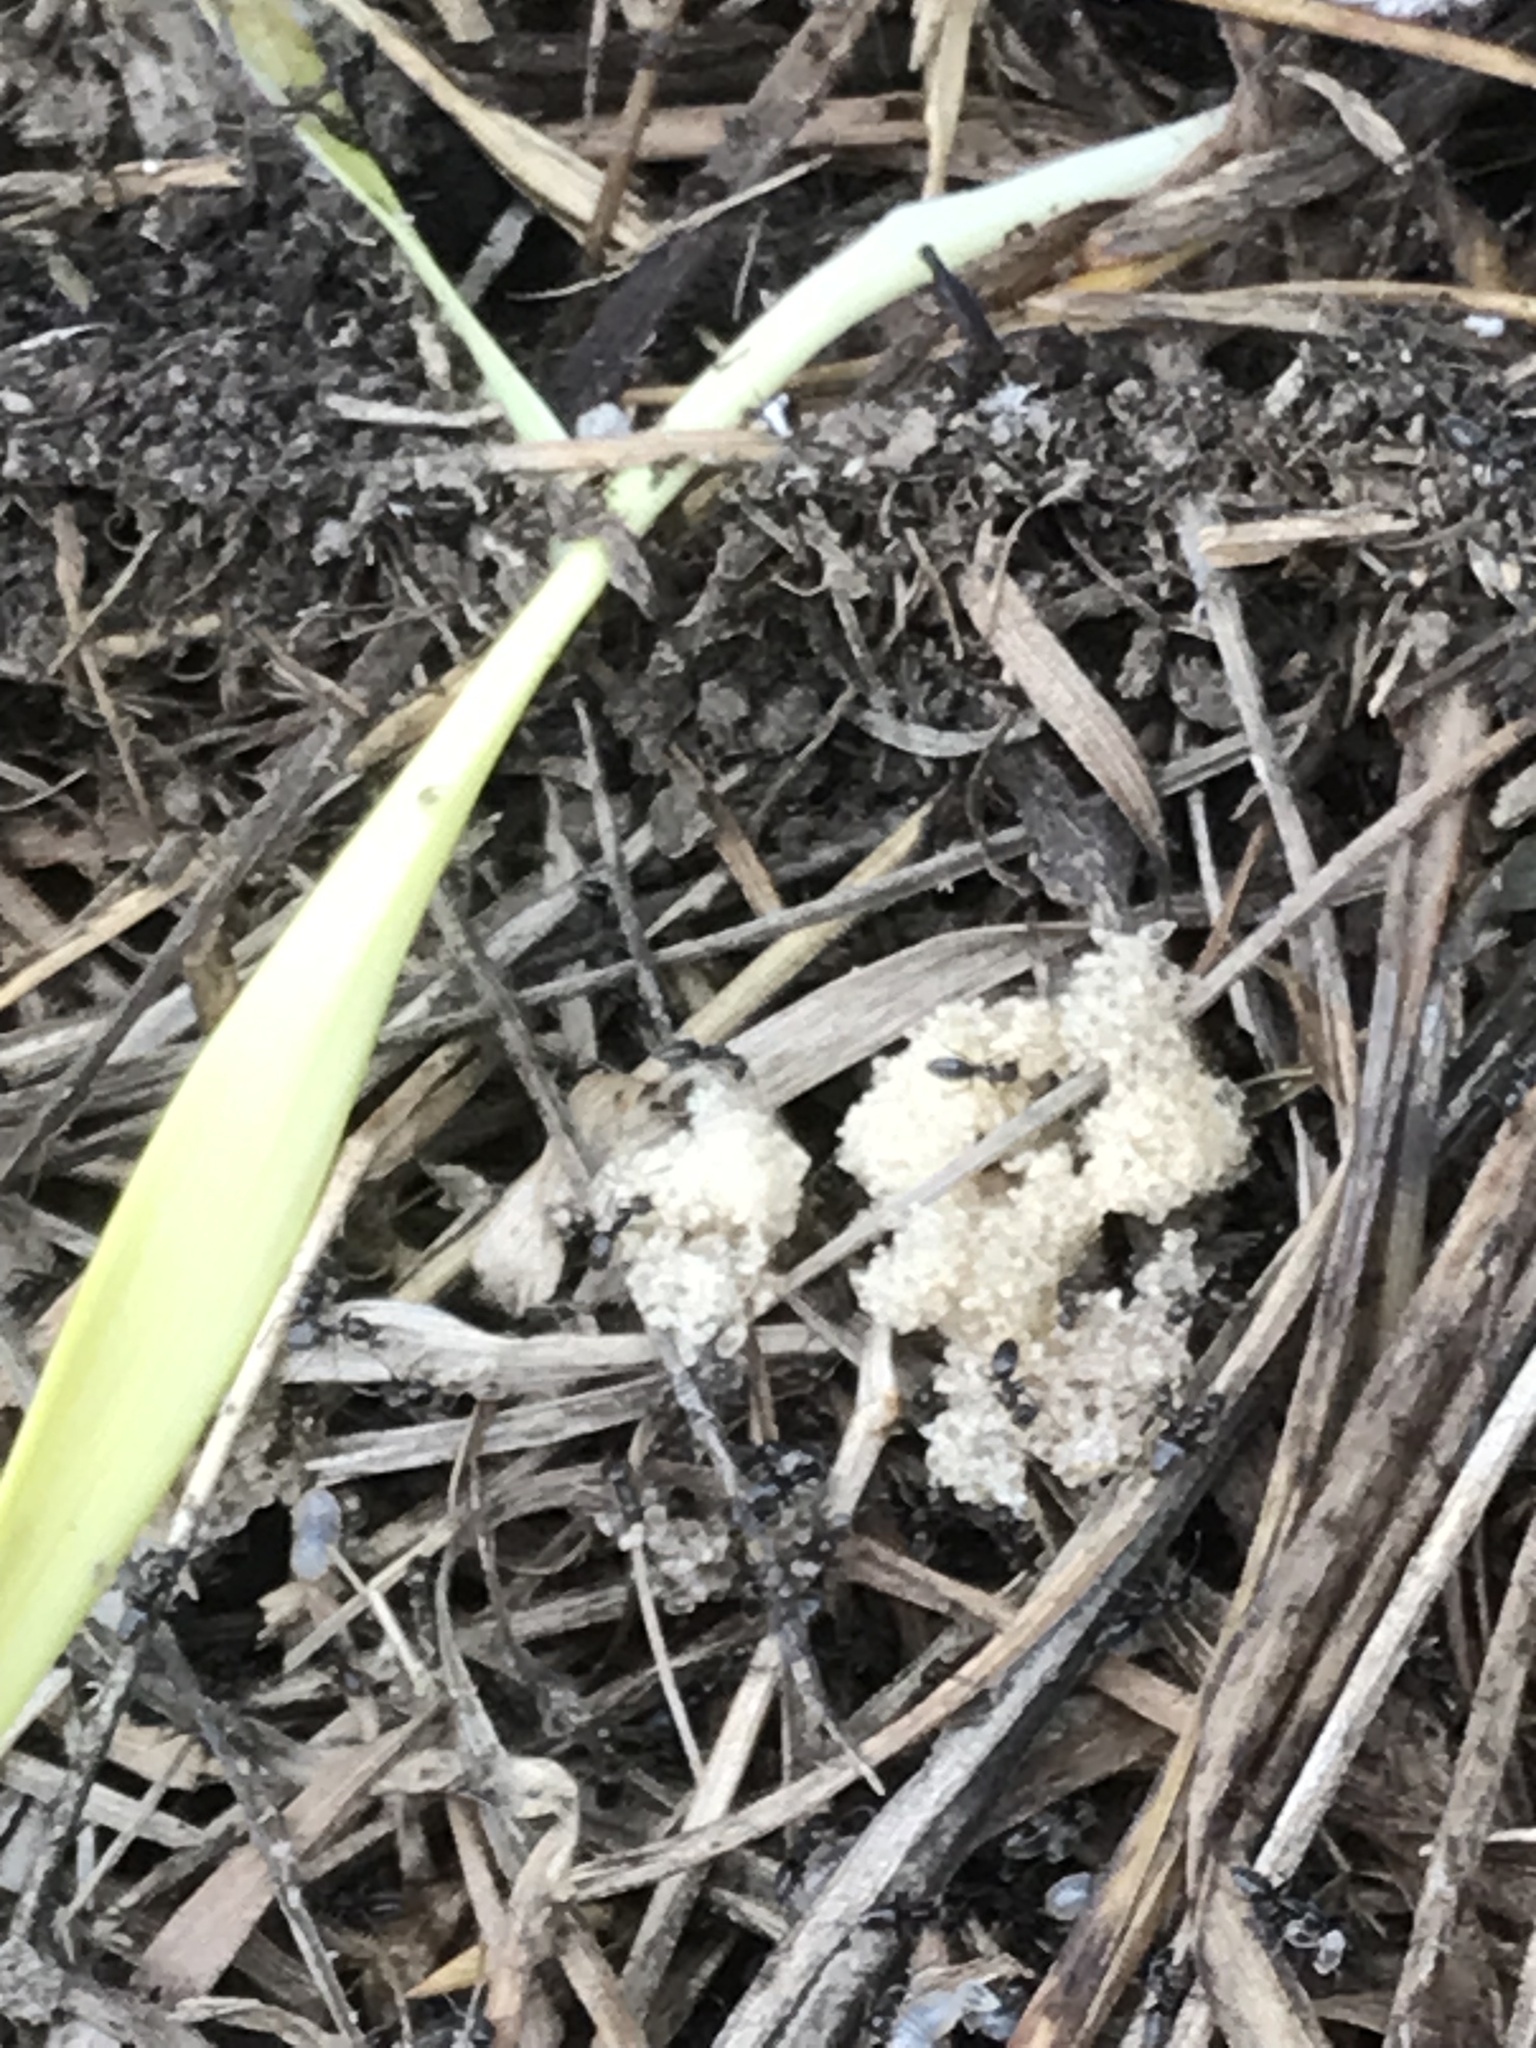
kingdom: Animalia
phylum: Arthropoda
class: Insecta
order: Hymenoptera
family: Formicidae
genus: Tapinoma
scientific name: Tapinoma sessile
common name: Odorous house ant
